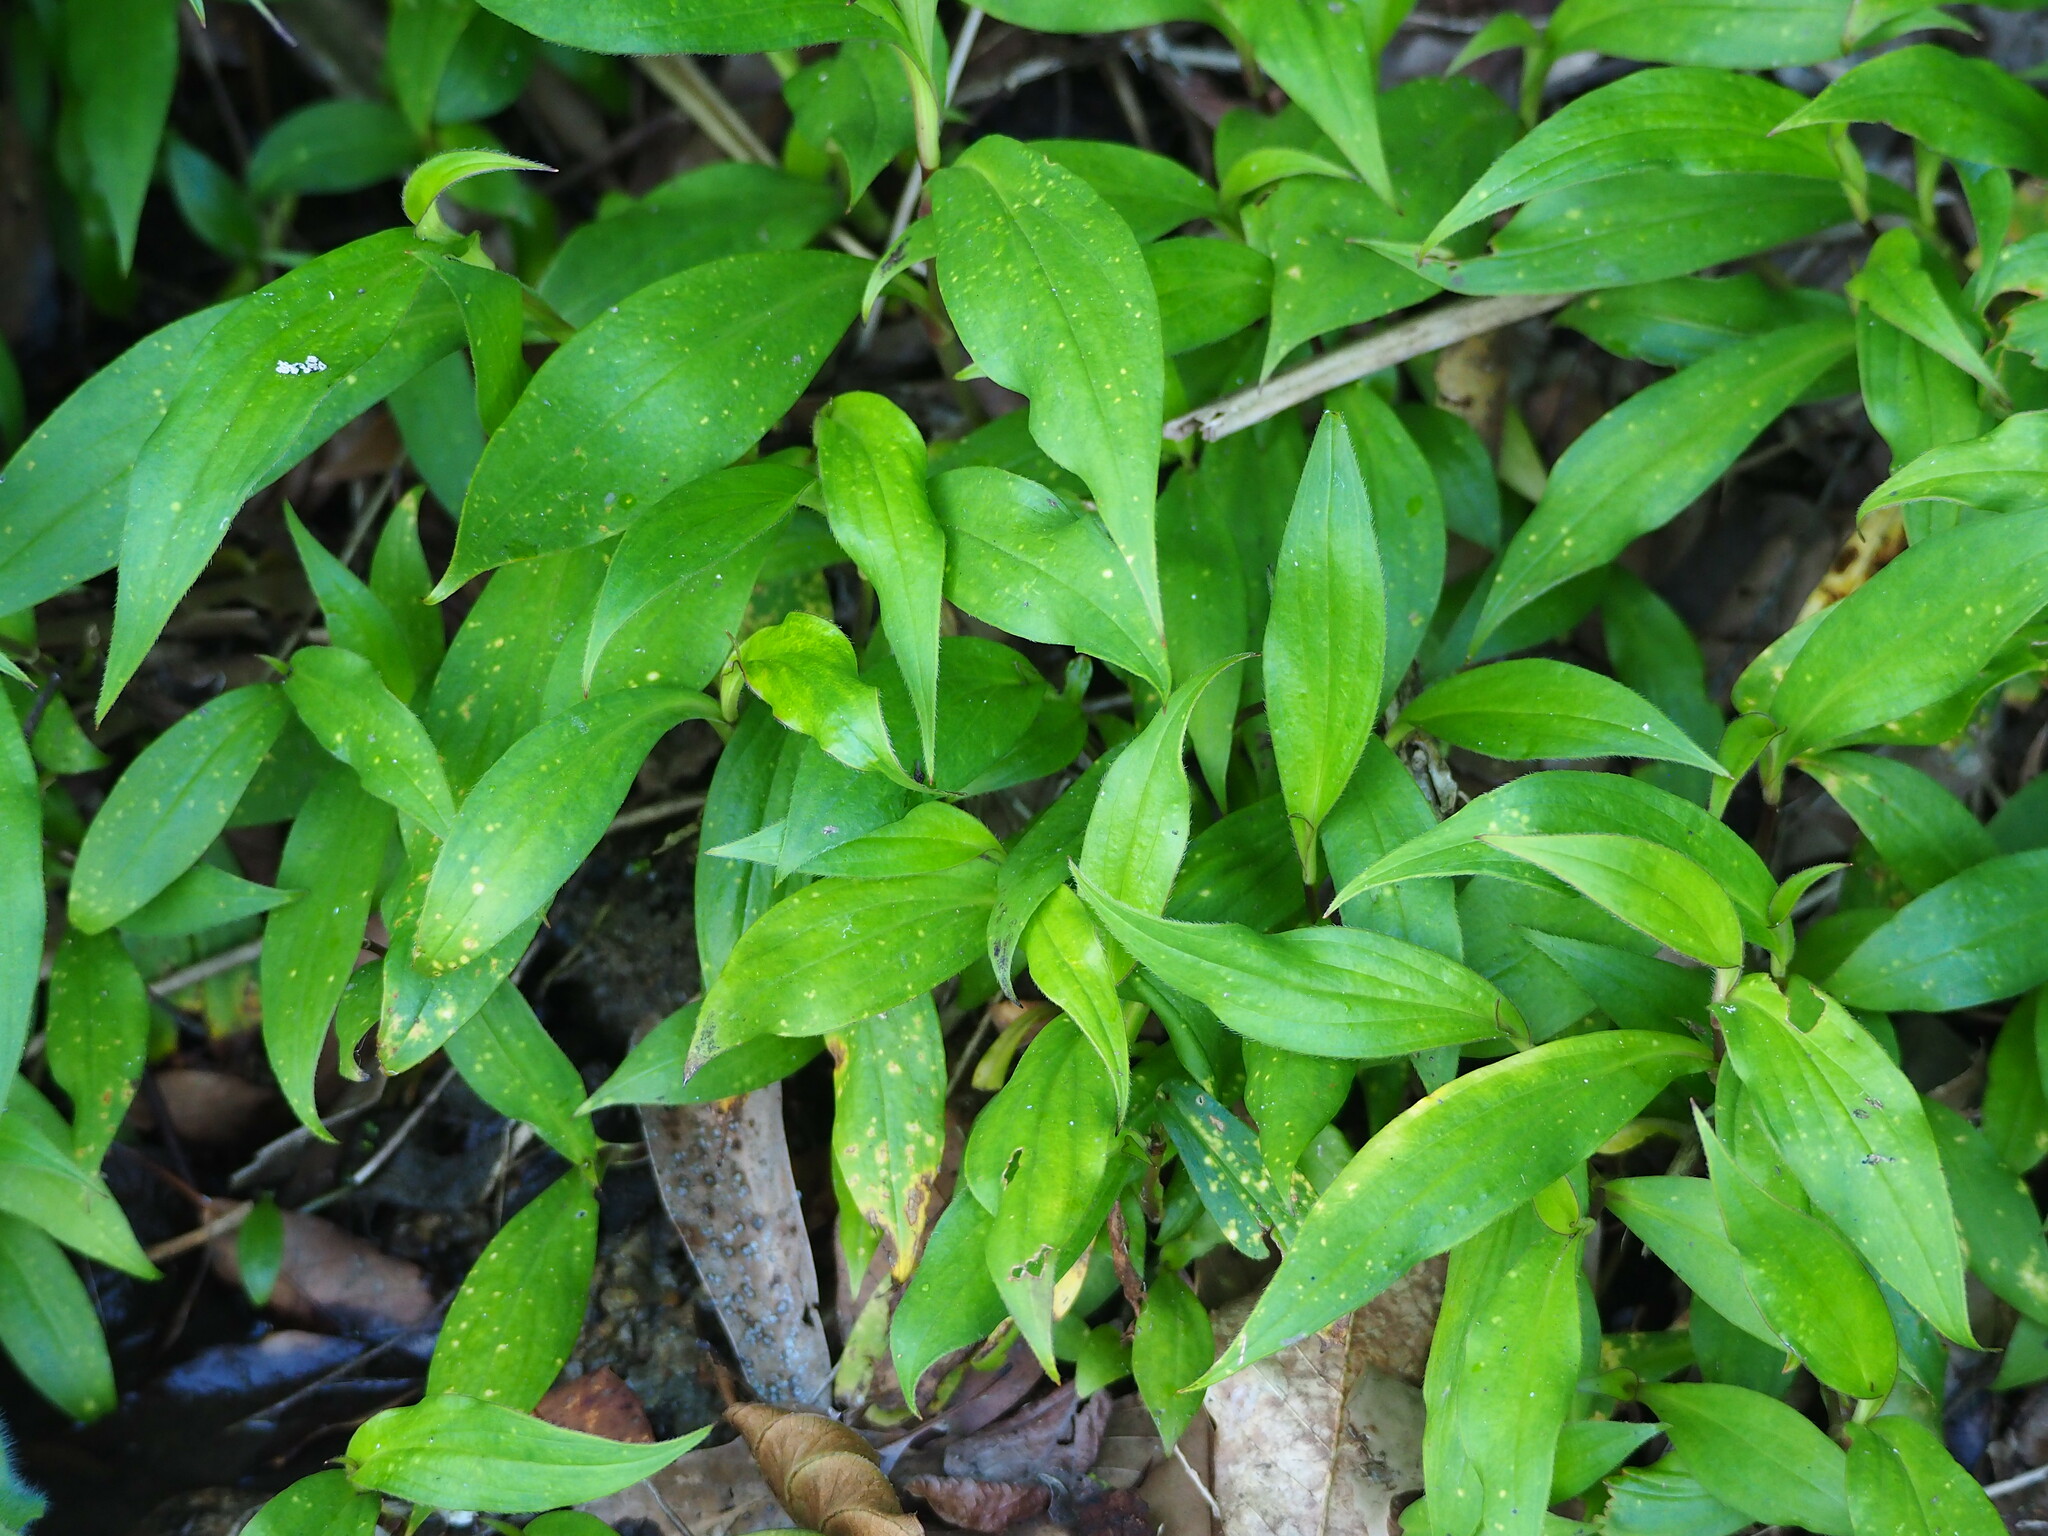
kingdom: Plantae
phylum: Tracheophyta
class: Liliopsida
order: Liliales
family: Liliaceae
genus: Tricyrtis
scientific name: Tricyrtis formosana
